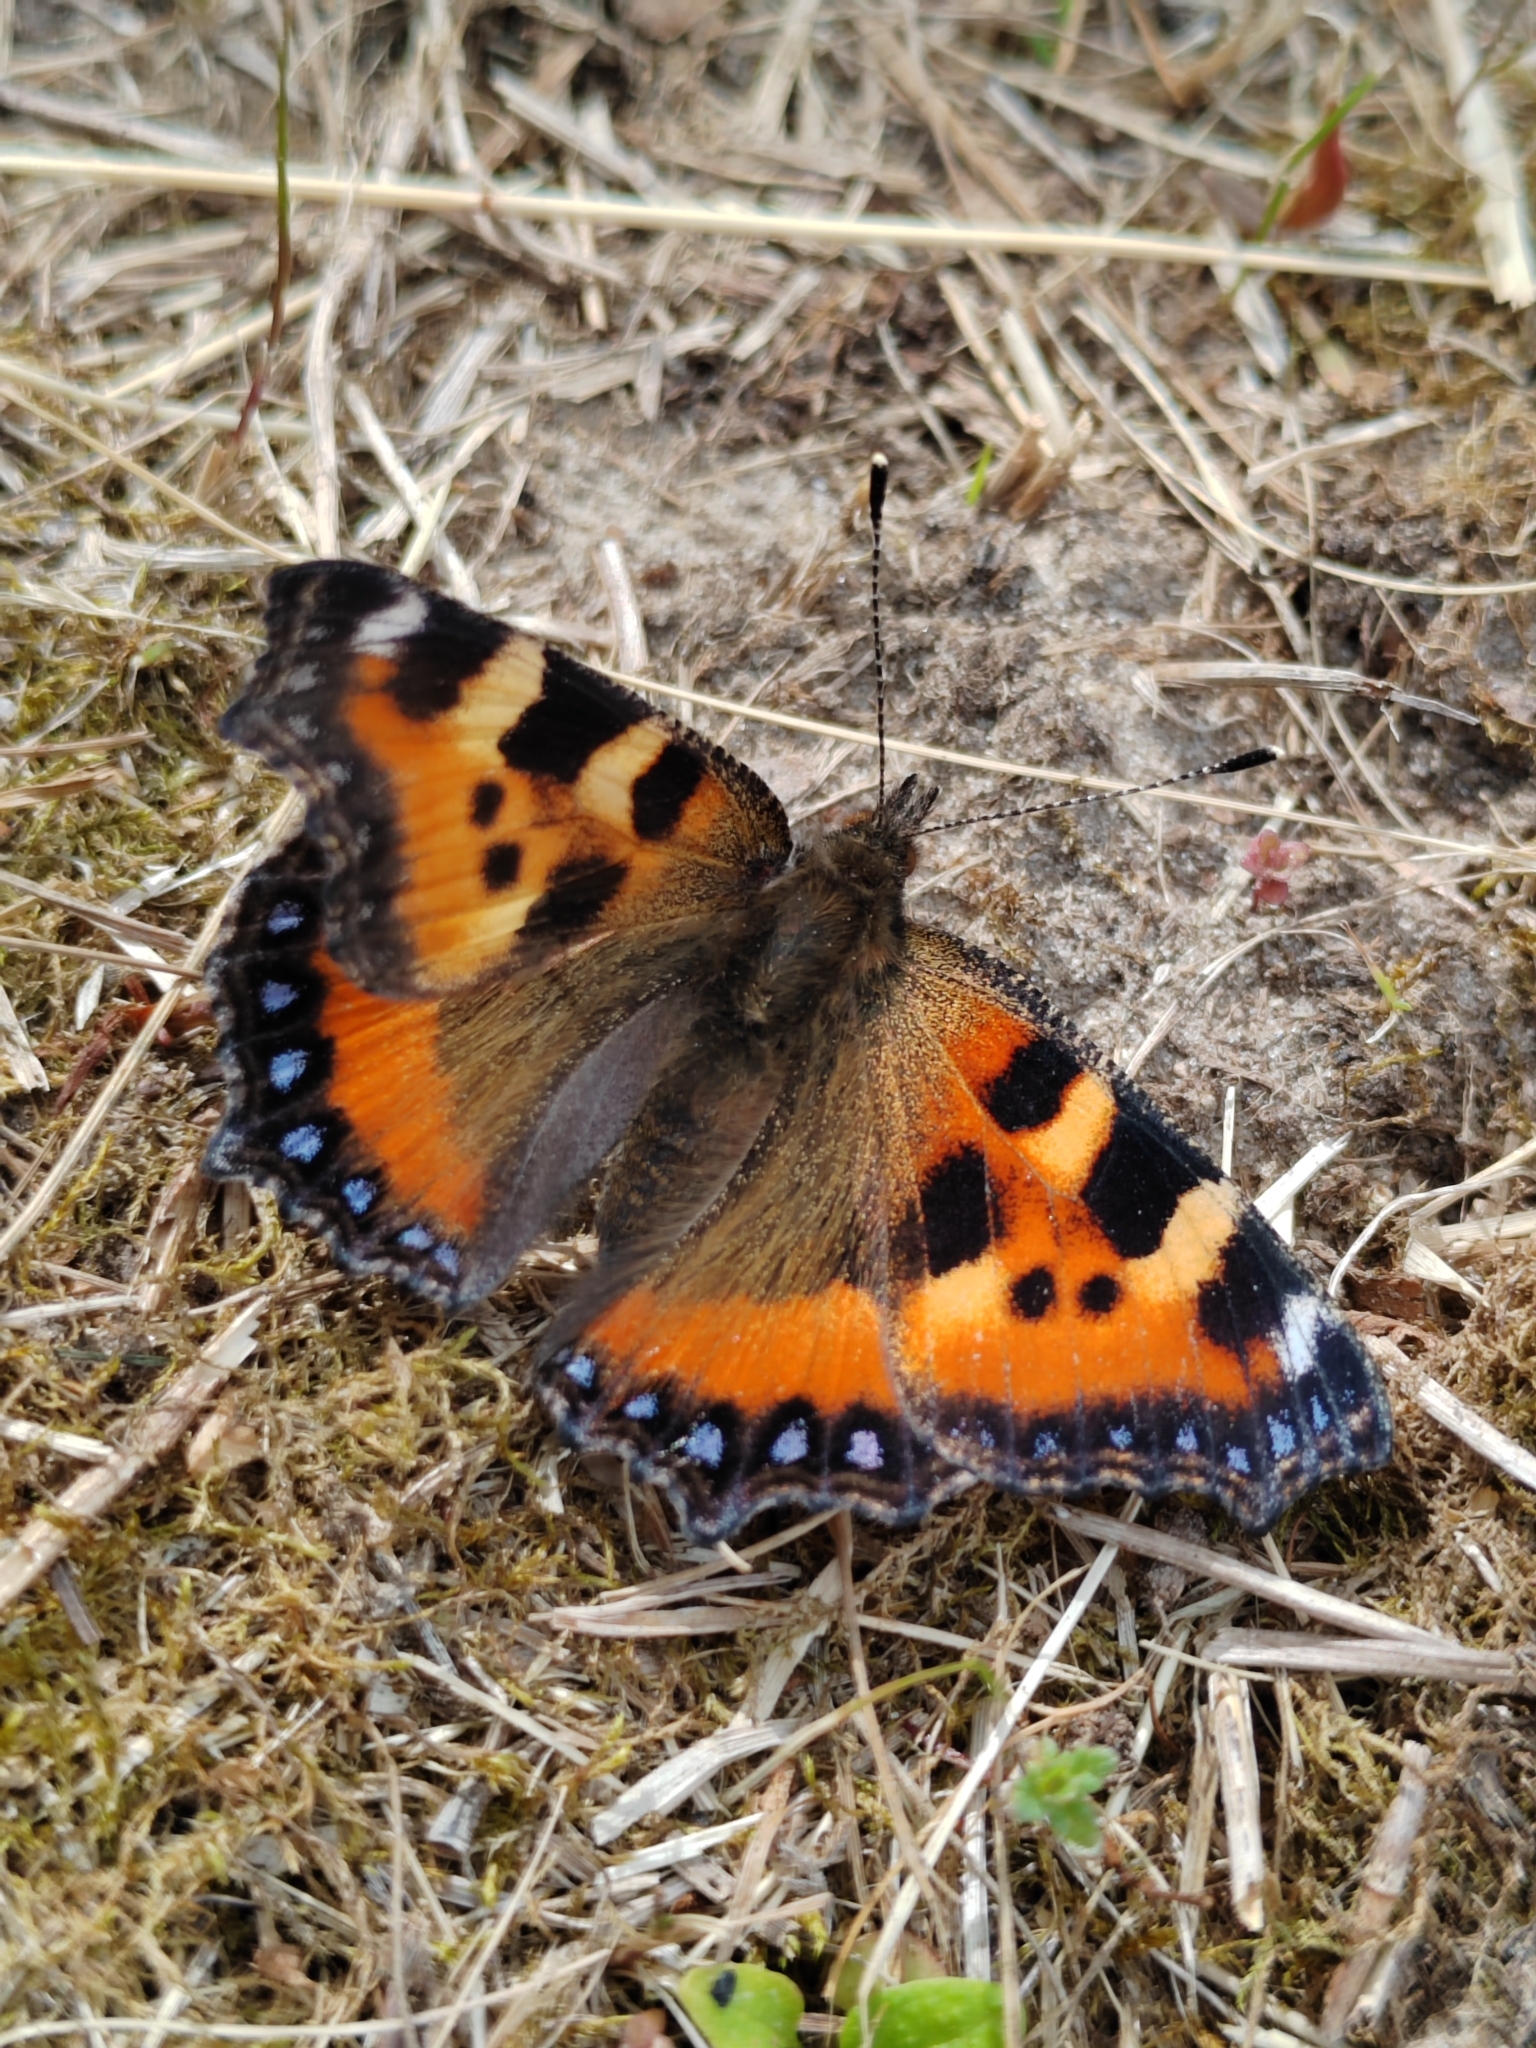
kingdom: Animalia
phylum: Arthropoda
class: Insecta
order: Lepidoptera
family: Nymphalidae
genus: Aglais
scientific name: Aglais urticae
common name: Small tortoiseshell
